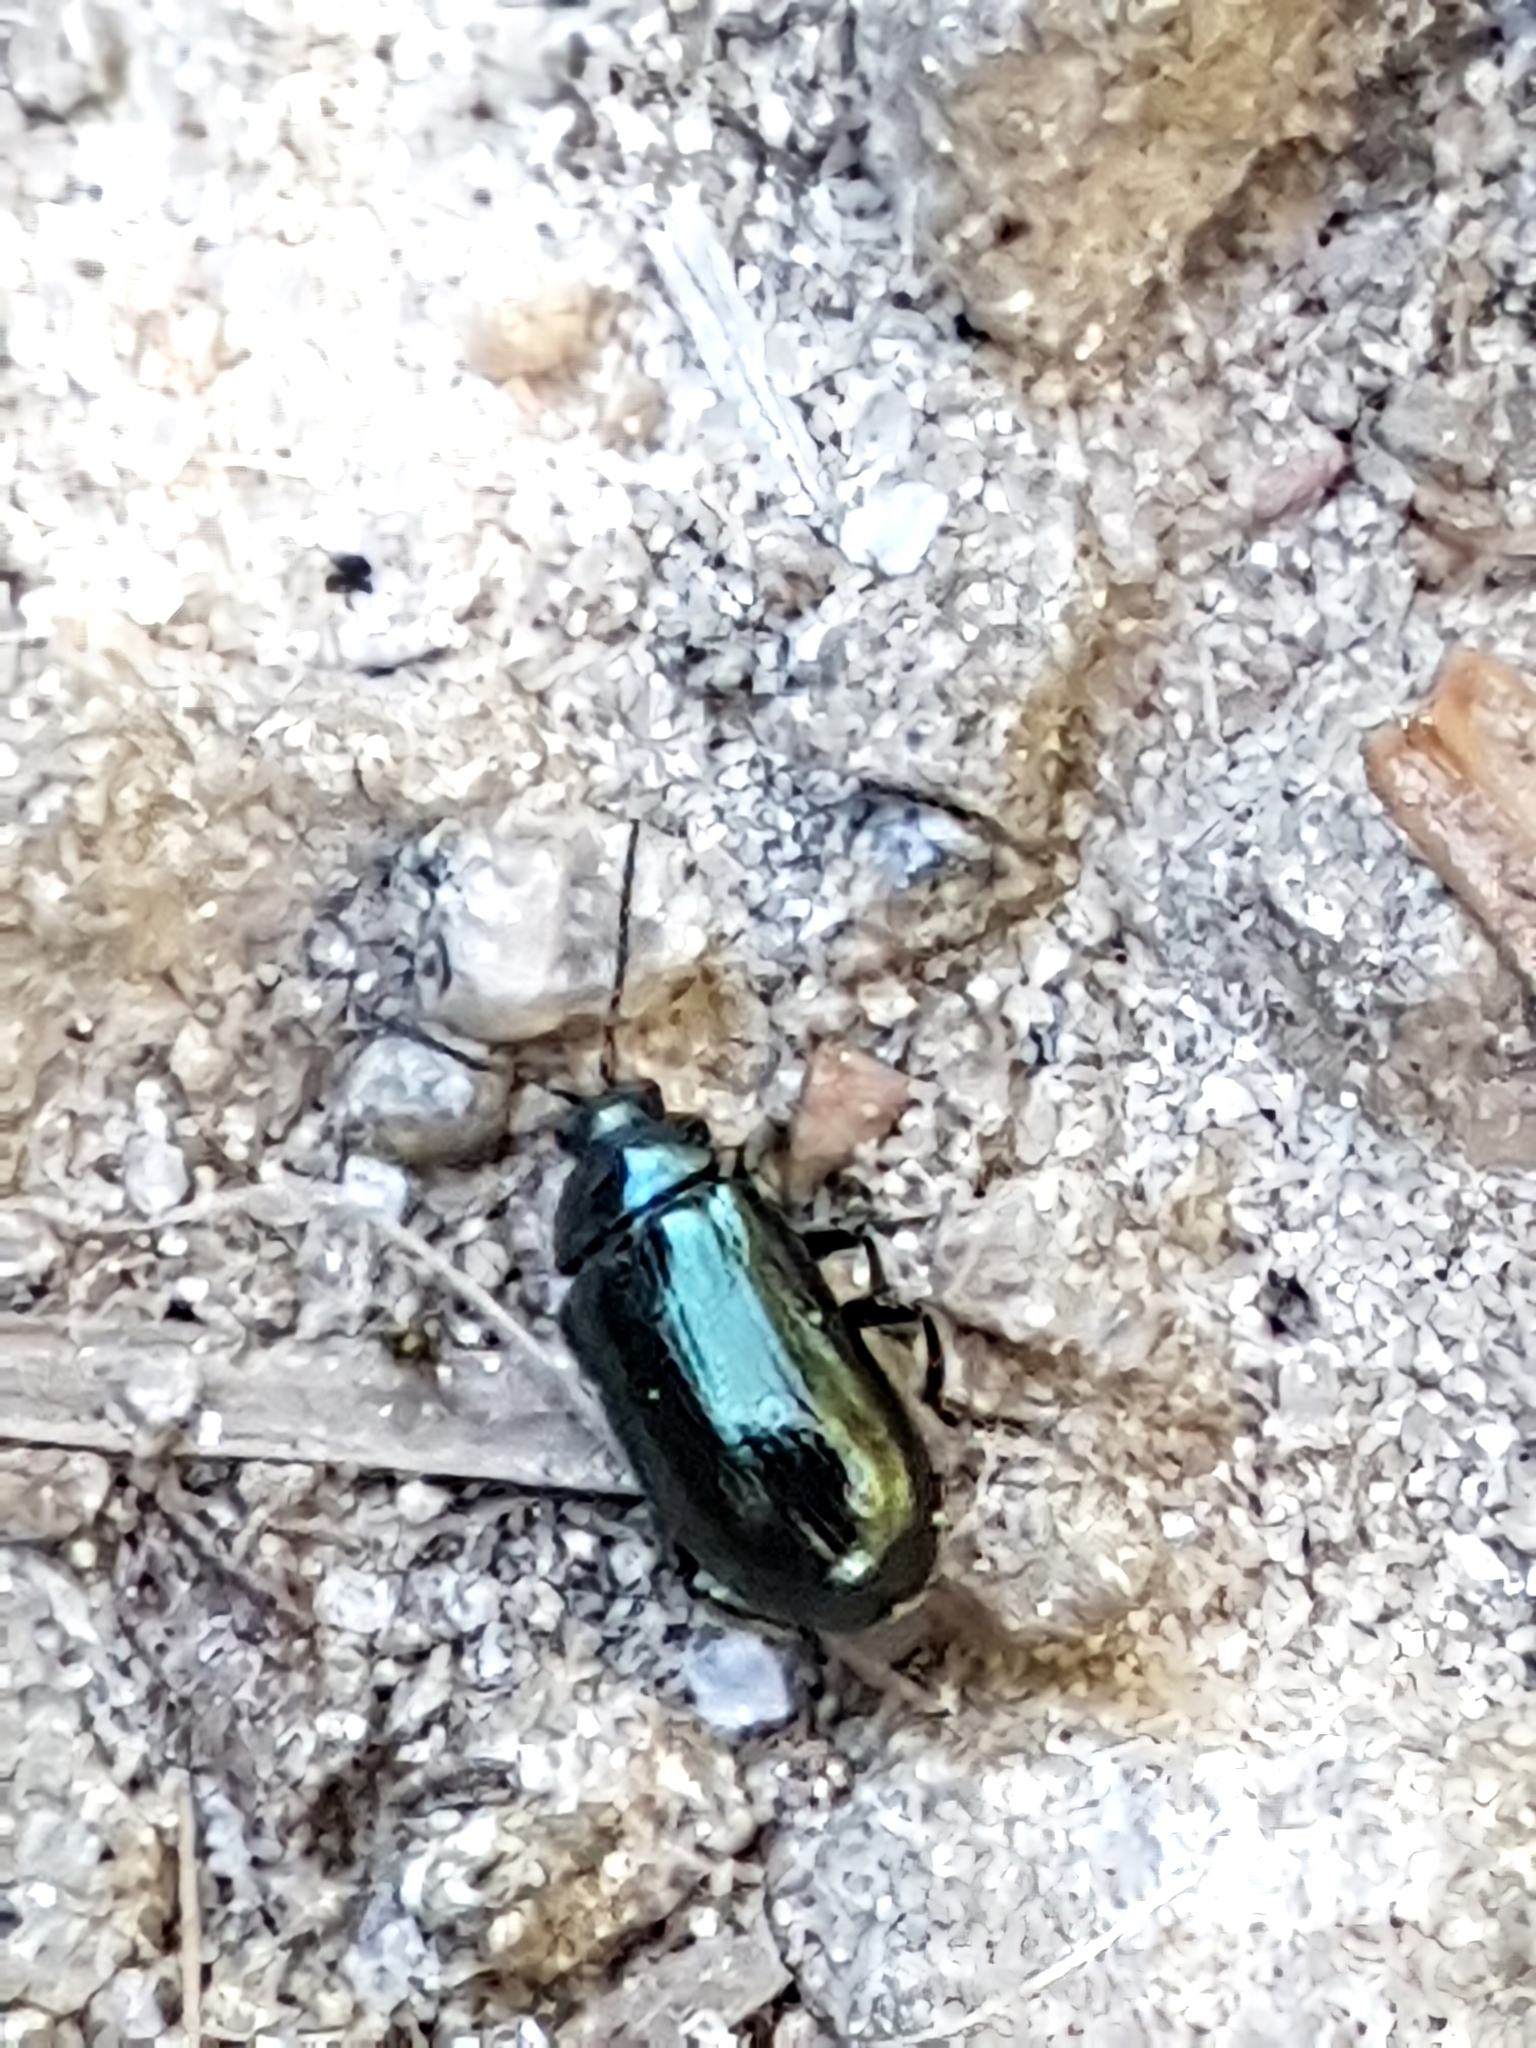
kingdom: Animalia
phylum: Arthropoda
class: Insecta
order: Coleoptera
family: Chrysomelidae
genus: Phratora
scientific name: Phratora vulgatissima
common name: Blue willow beetle
